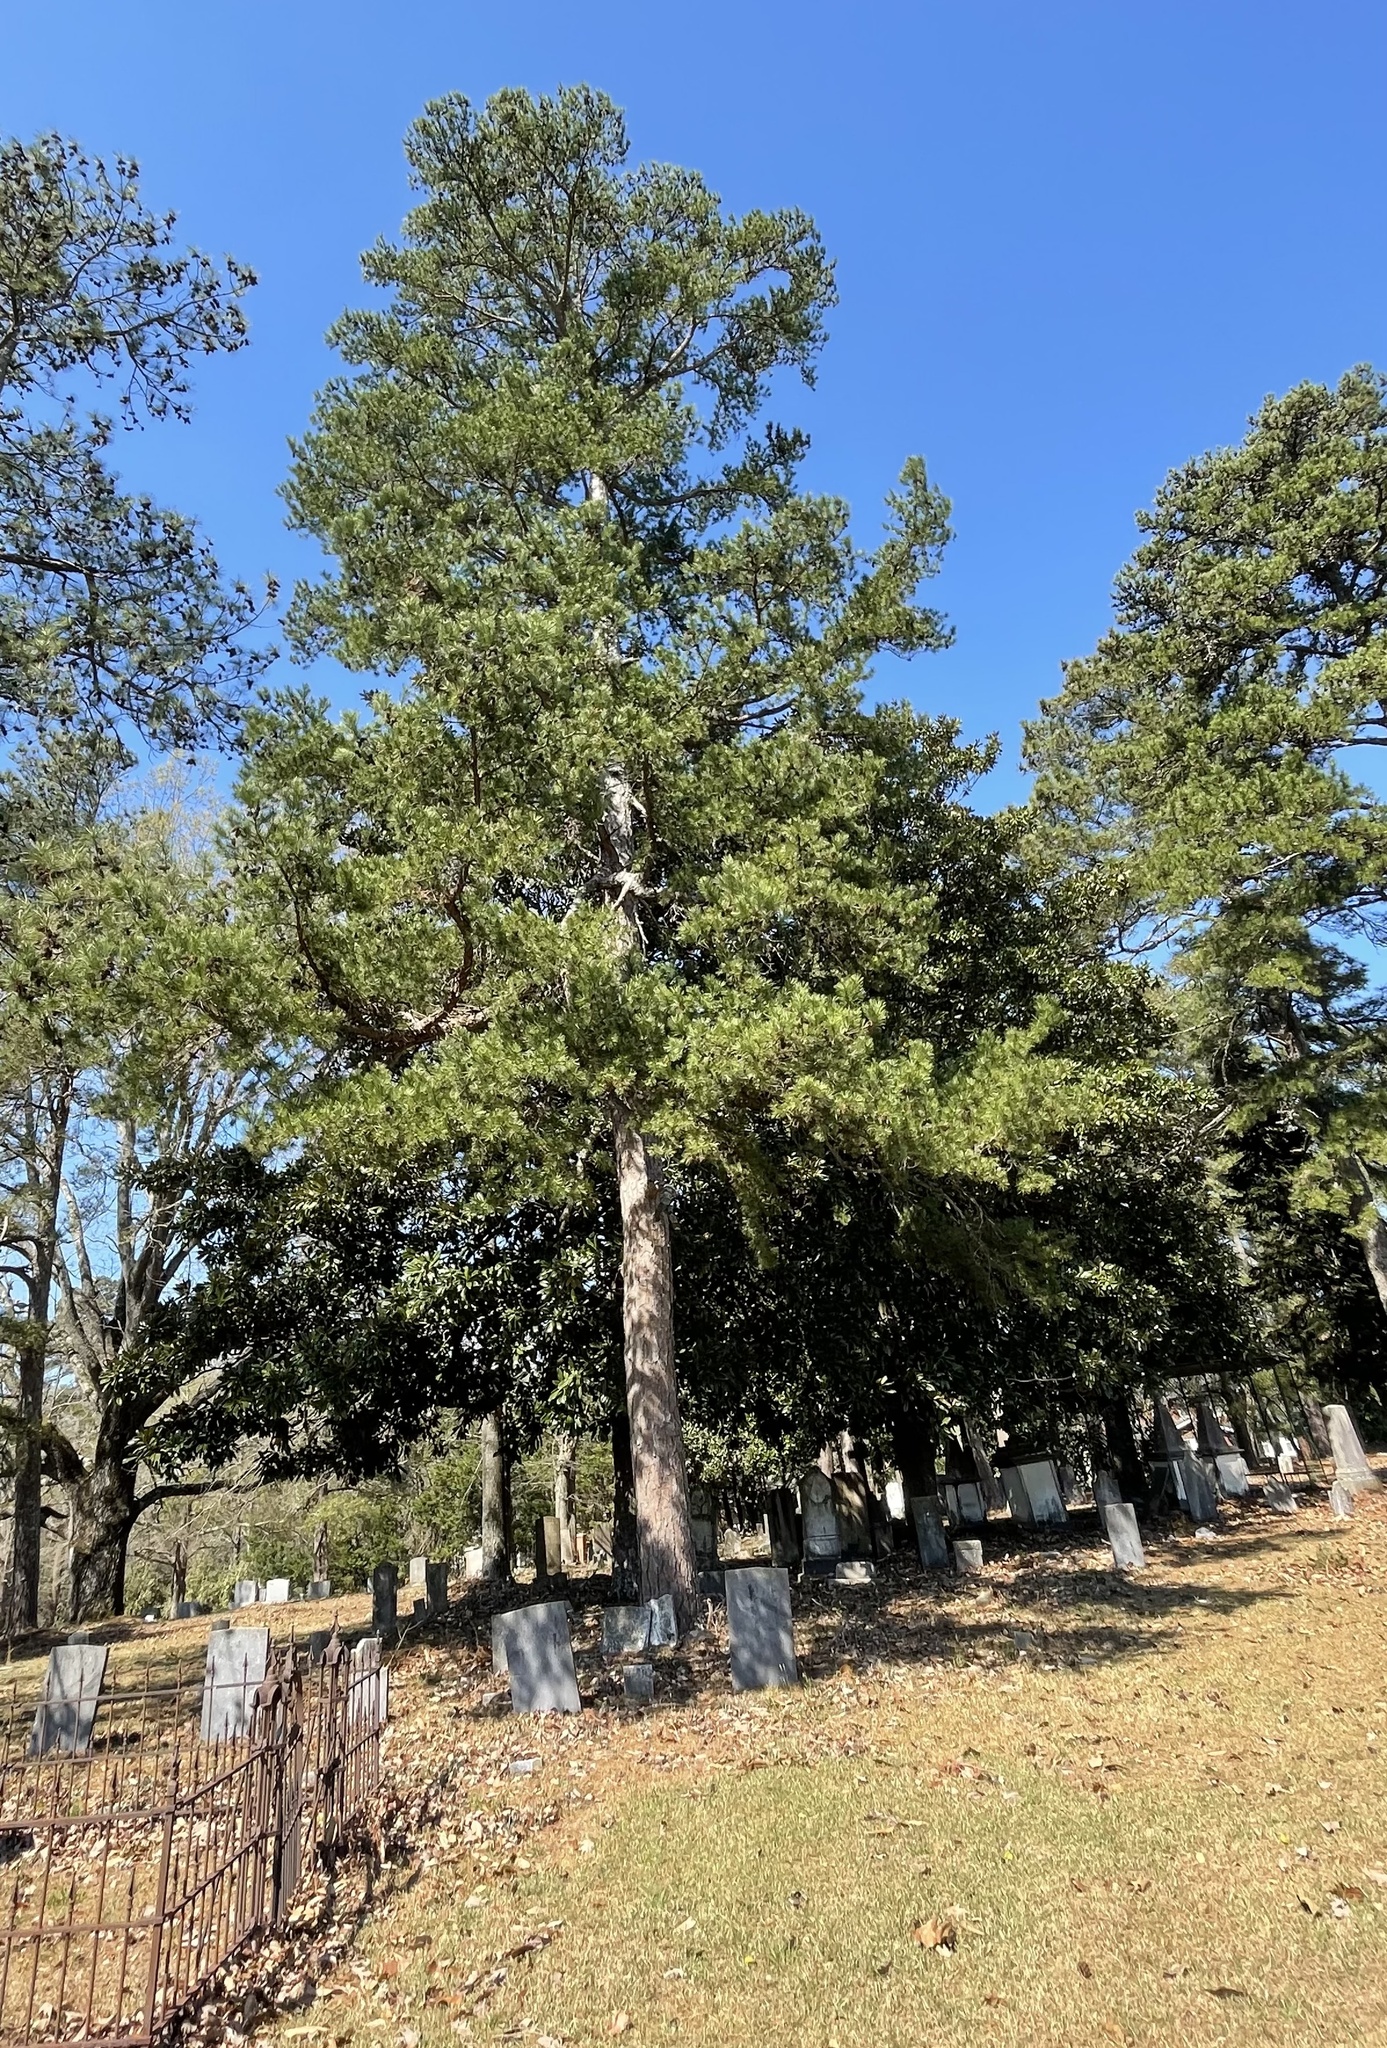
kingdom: Plantae
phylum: Tracheophyta
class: Pinopsida
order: Pinales
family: Pinaceae
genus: Pinus
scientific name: Pinus echinata
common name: Shortleaf pine
